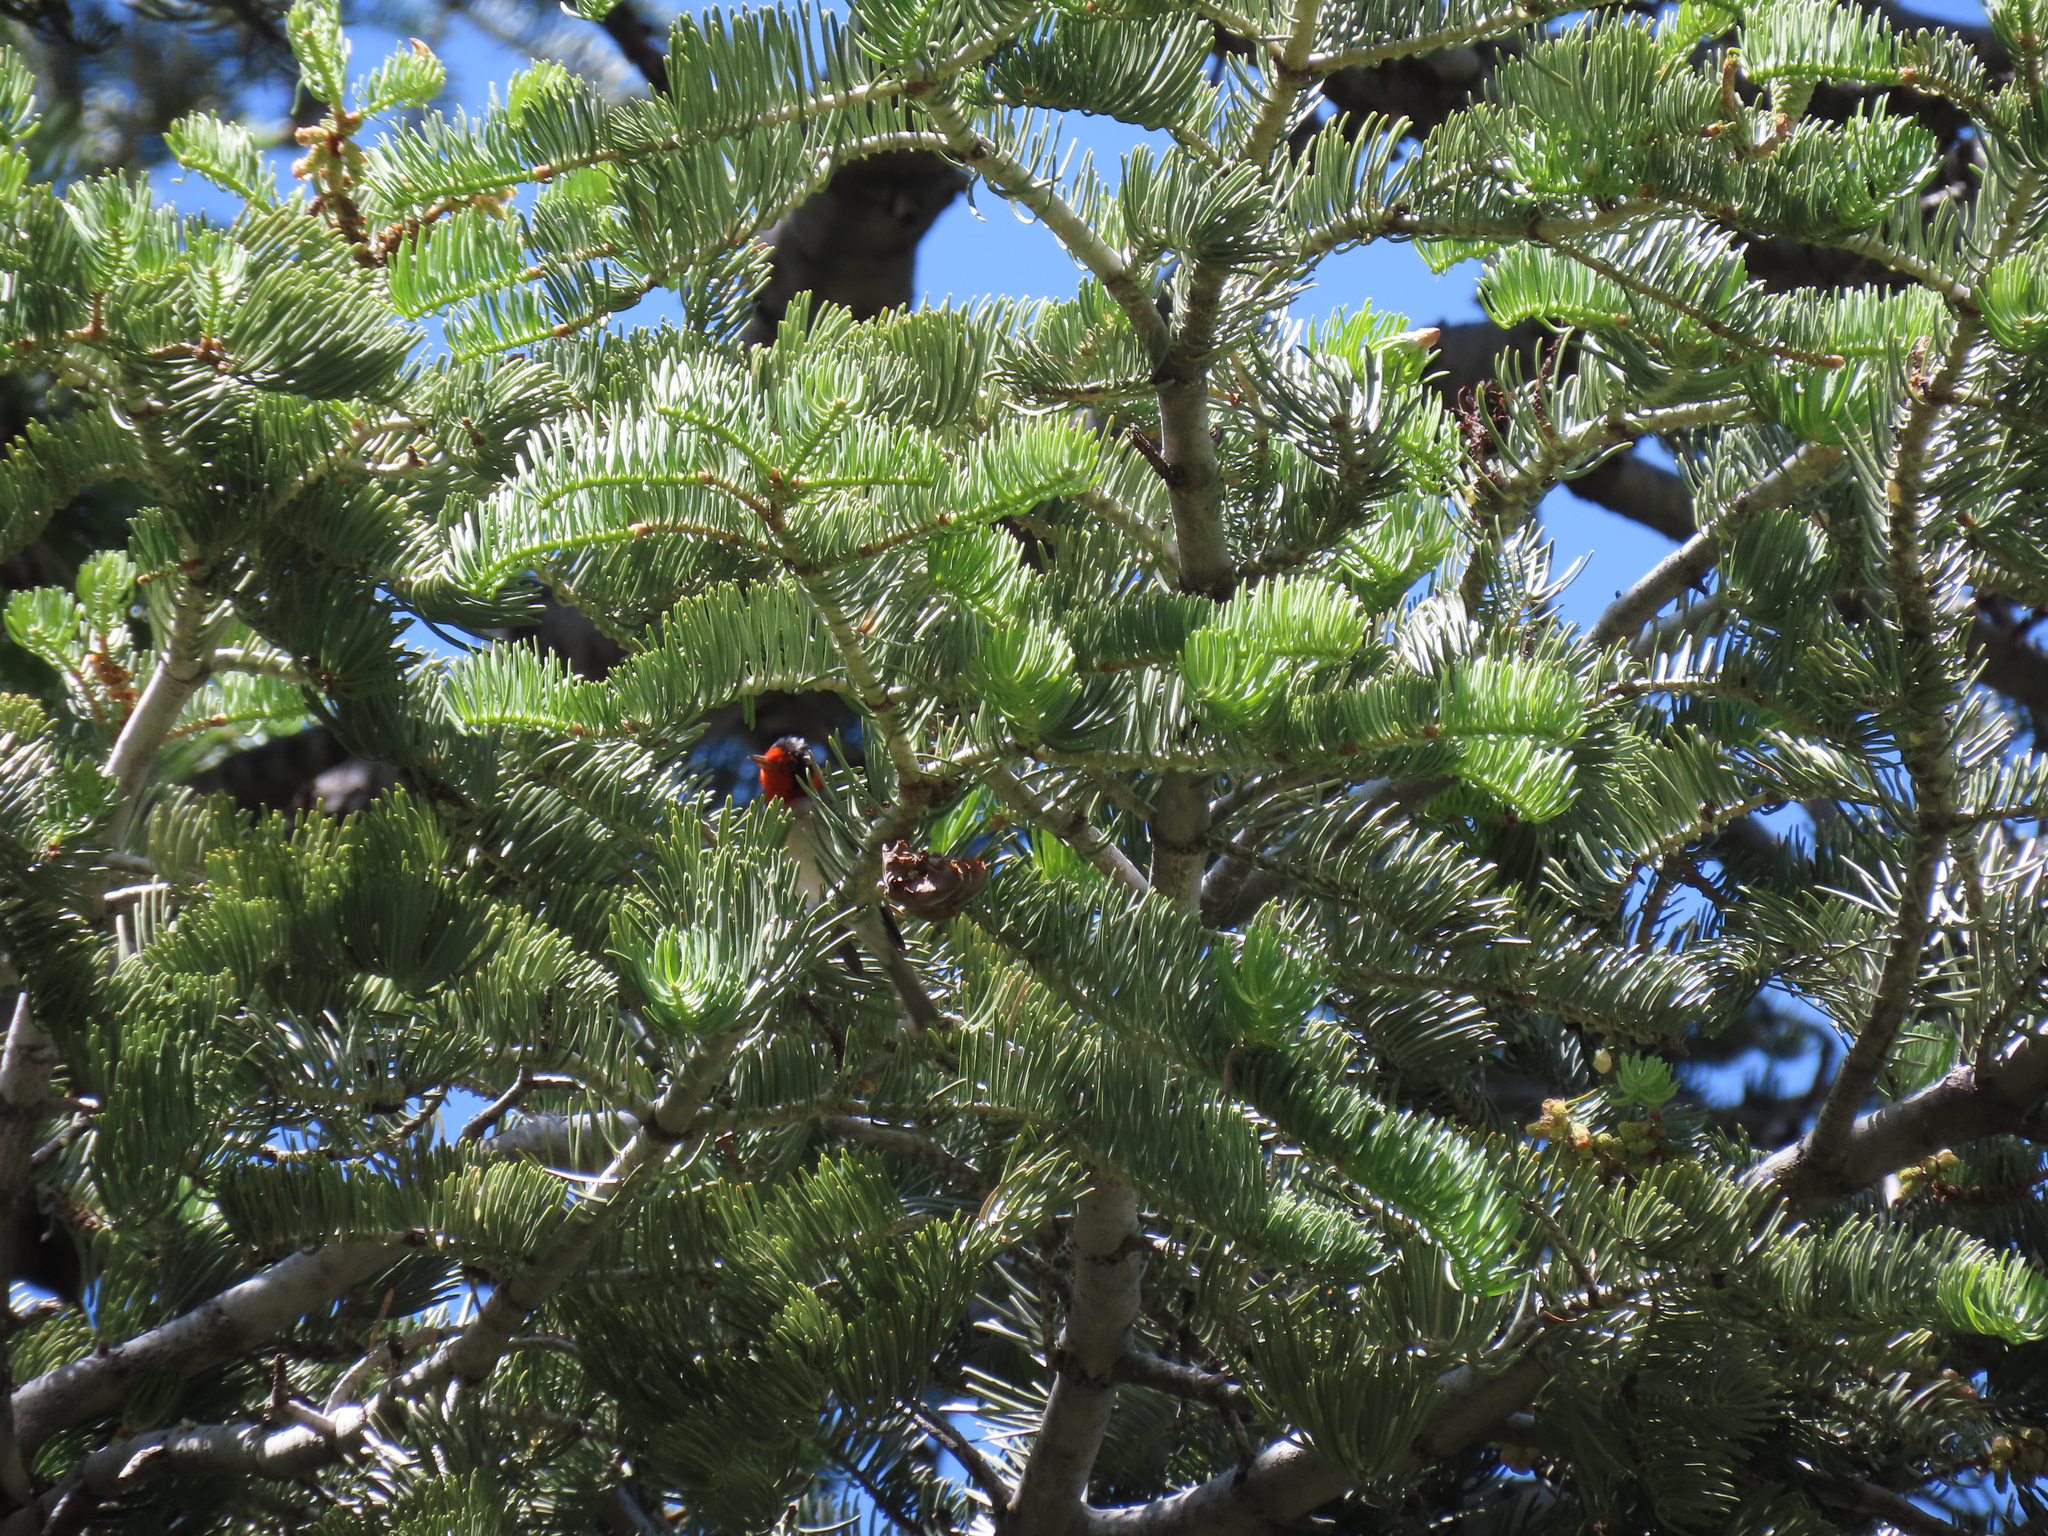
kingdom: Animalia
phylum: Chordata
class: Aves
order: Passeriformes
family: Parulidae
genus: Cardellina
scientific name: Cardellina rubrifrons
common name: Red-faced warbler
